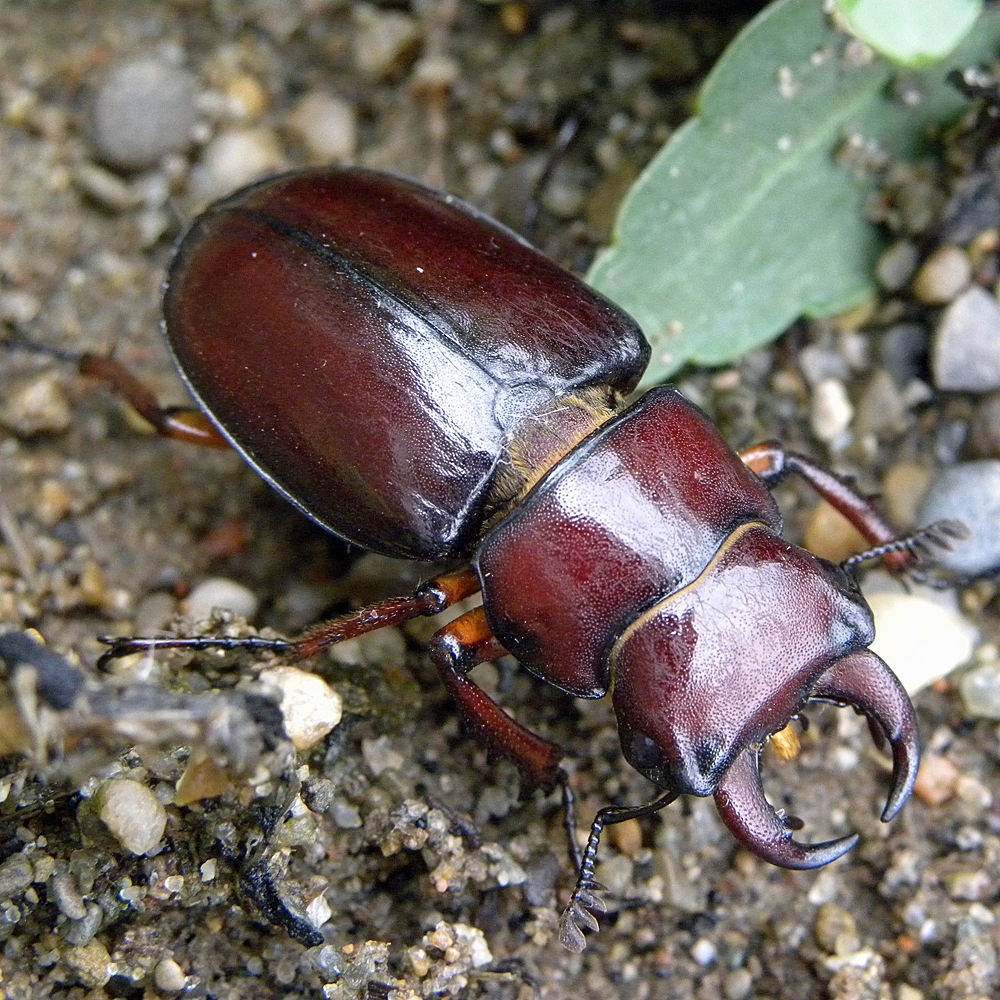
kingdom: Animalia
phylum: Arthropoda
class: Insecta
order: Coleoptera
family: Lucanidae
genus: Lucanus
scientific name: Lucanus capreolus
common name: Stag beetle
